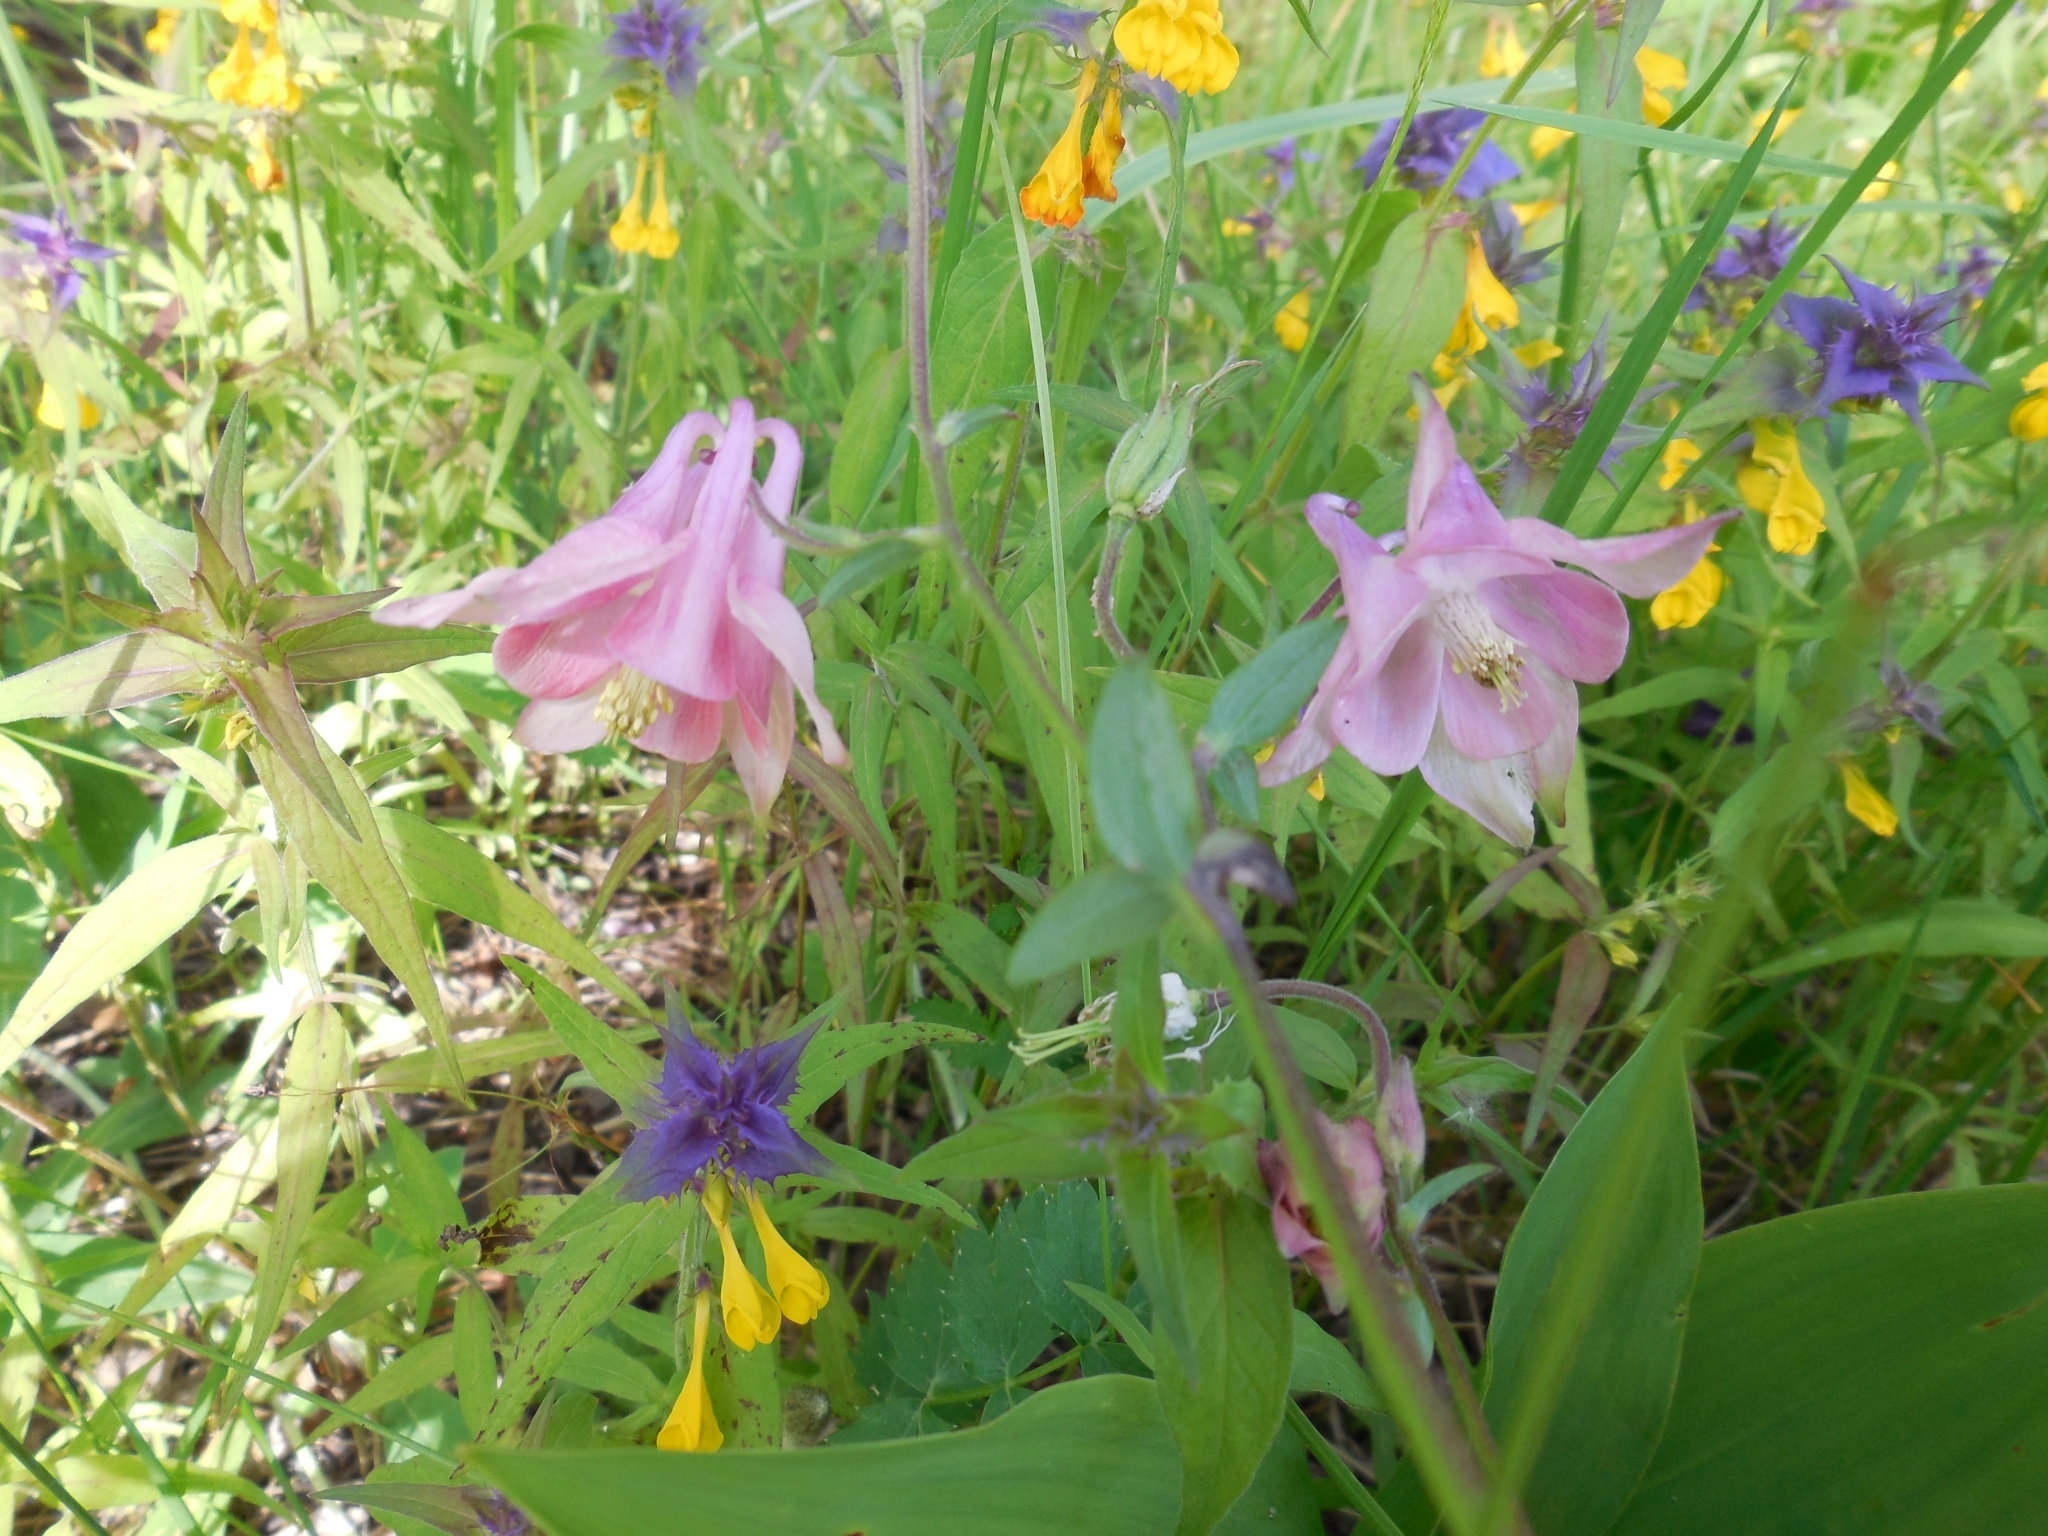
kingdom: Plantae
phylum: Tracheophyta
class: Magnoliopsida
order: Ranunculales
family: Ranunculaceae
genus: Aquilegia
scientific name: Aquilegia vulgaris
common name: Columbine
